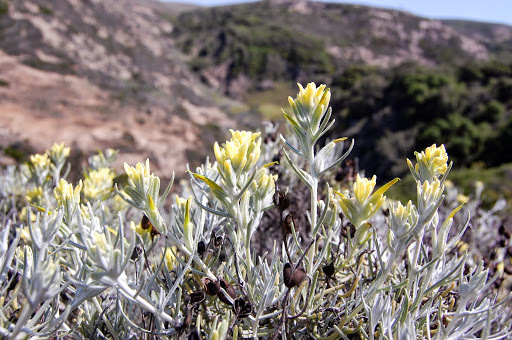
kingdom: Plantae
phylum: Tracheophyta
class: Magnoliopsida
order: Lamiales
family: Orobanchaceae
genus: Castilleja
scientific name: Castilleja hololeuca
